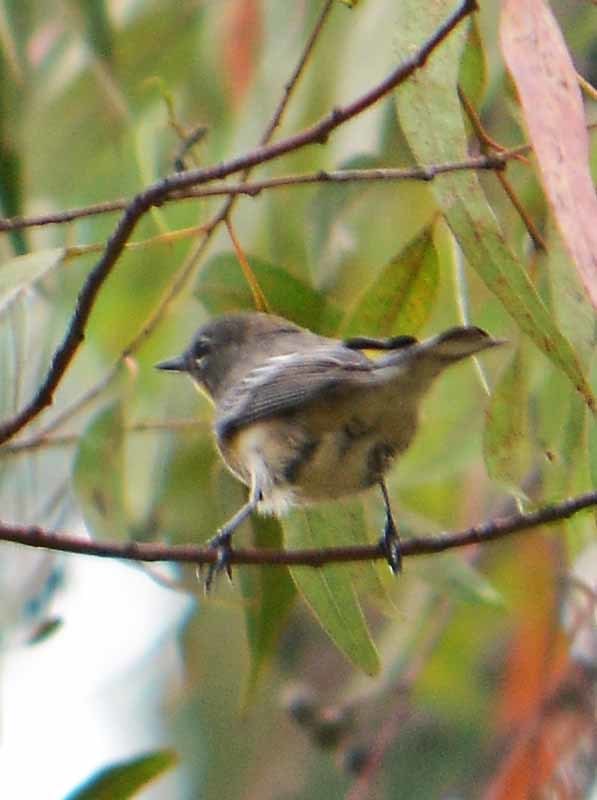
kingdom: Animalia
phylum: Chordata
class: Aves
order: Passeriformes
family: Parulidae
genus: Setophaga
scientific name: Setophaga auduboni
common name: Audubon's warbler
